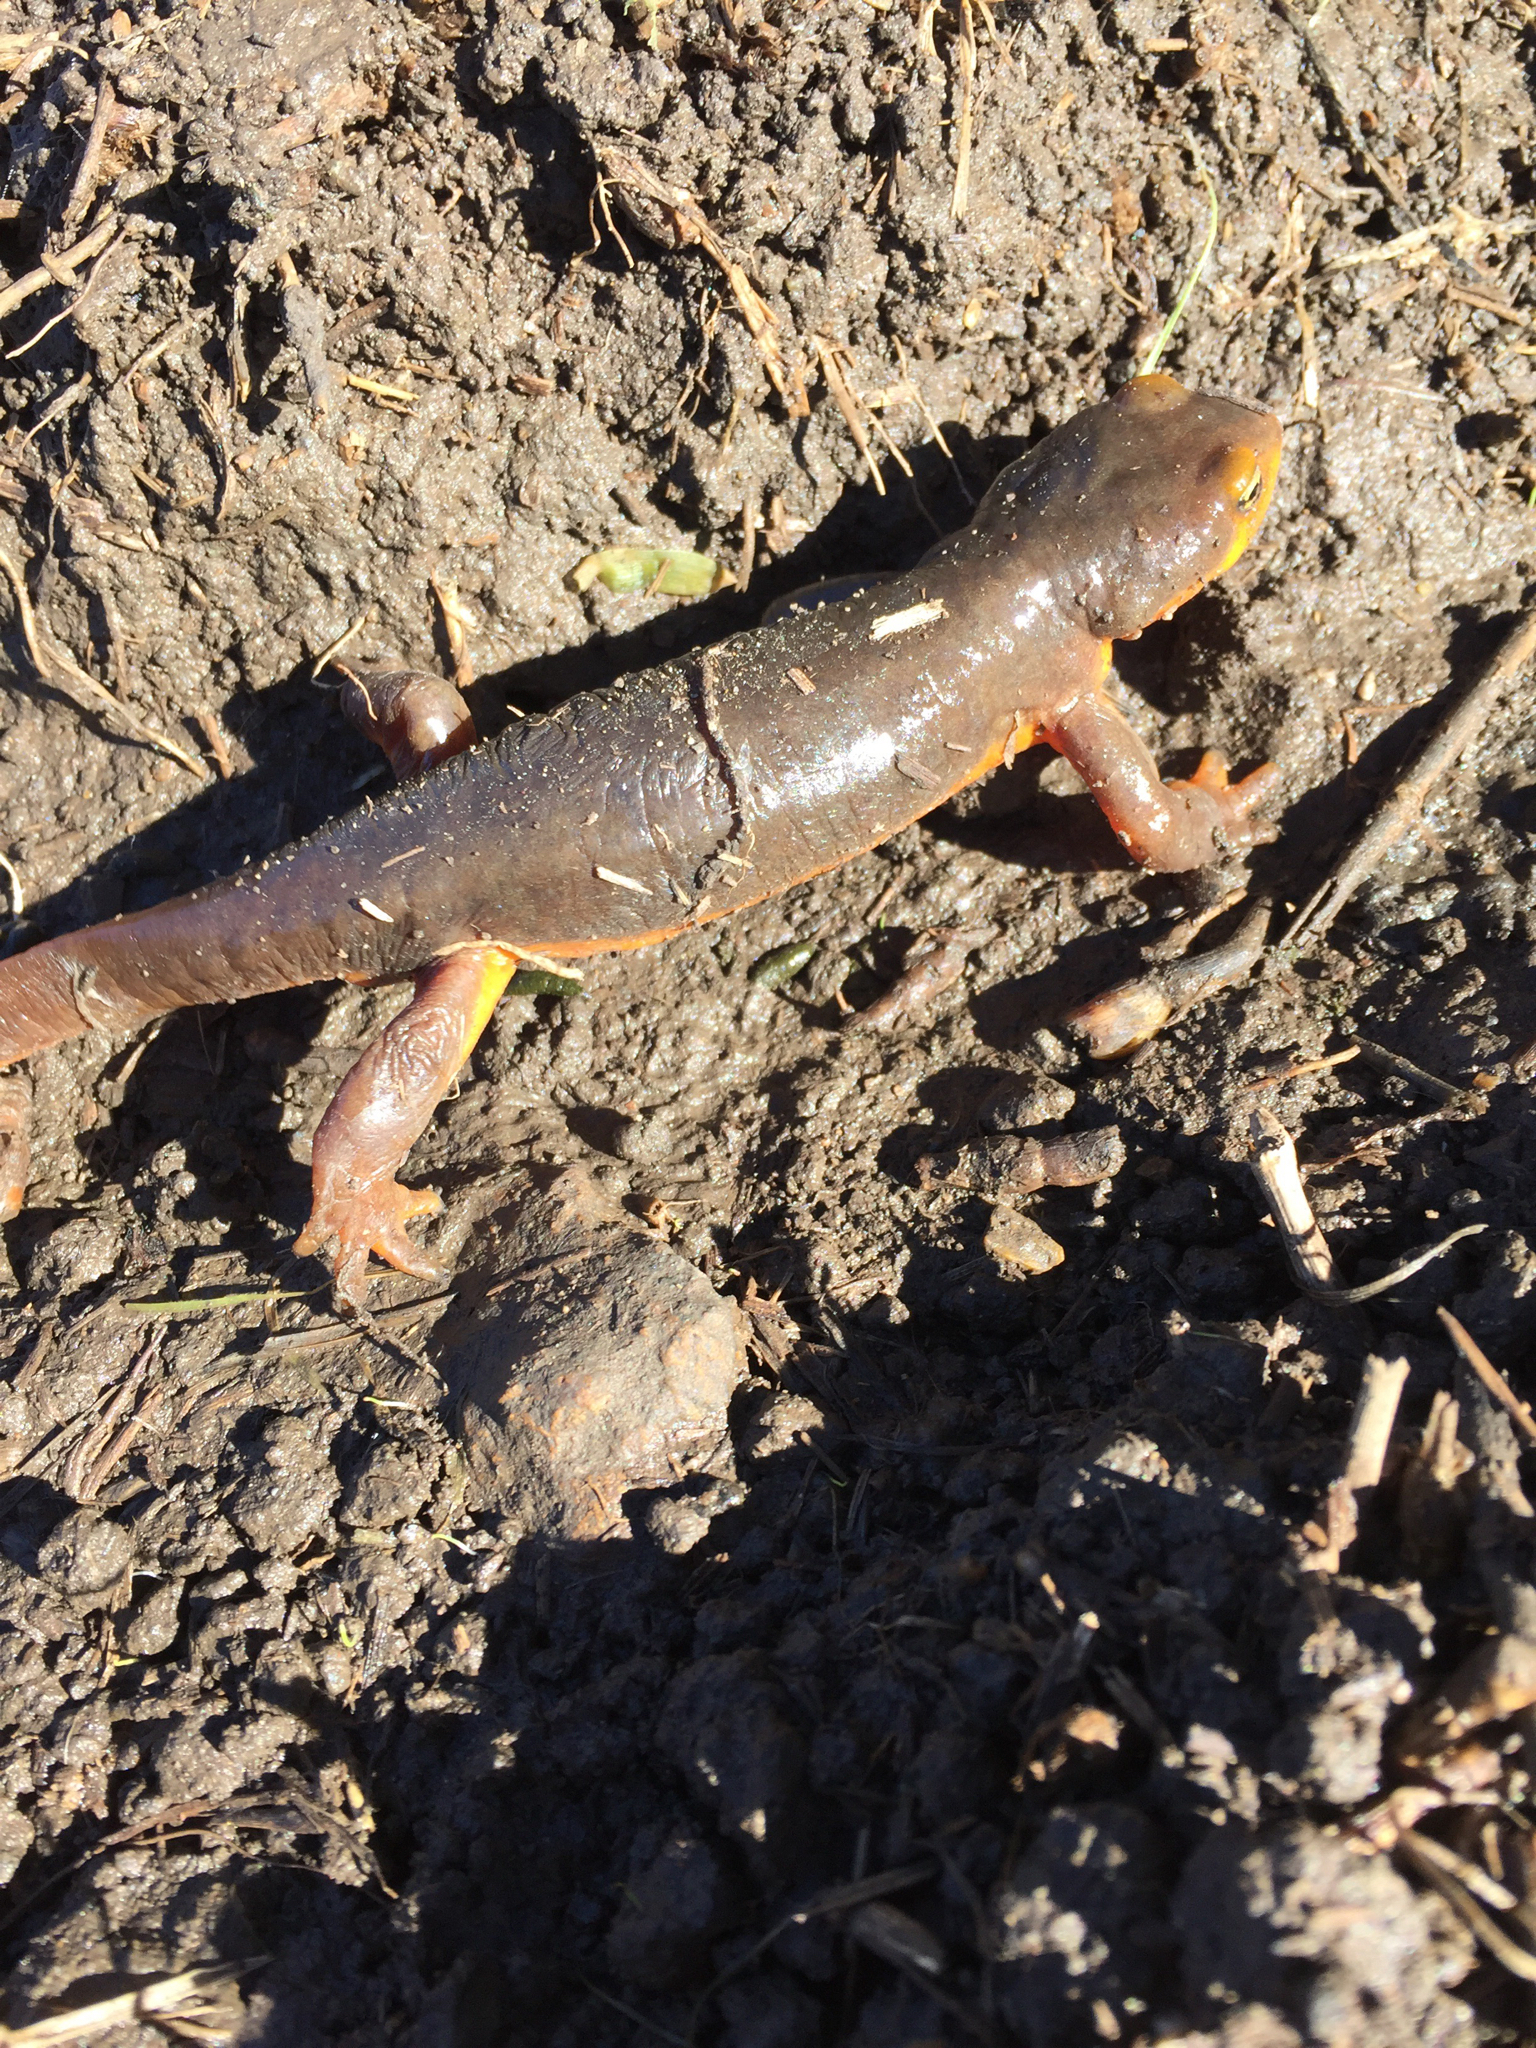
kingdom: Animalia
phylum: Chordata
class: Amphibia
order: Caudata
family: Salamandridae
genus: Taricha
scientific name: Taricha torosa
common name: California newt
